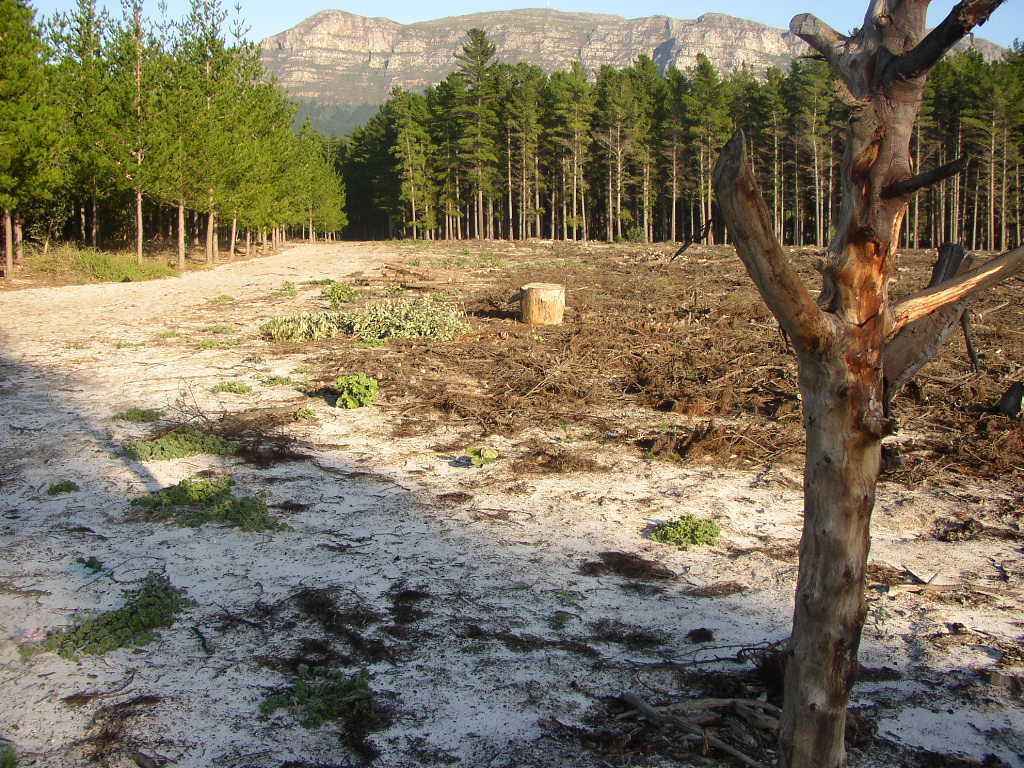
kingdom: Plantae
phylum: Tracheophyta
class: Pinopsida
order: Pinales
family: Pinaceae
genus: Pinus
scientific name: Pinus radiata
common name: Monterey pine
